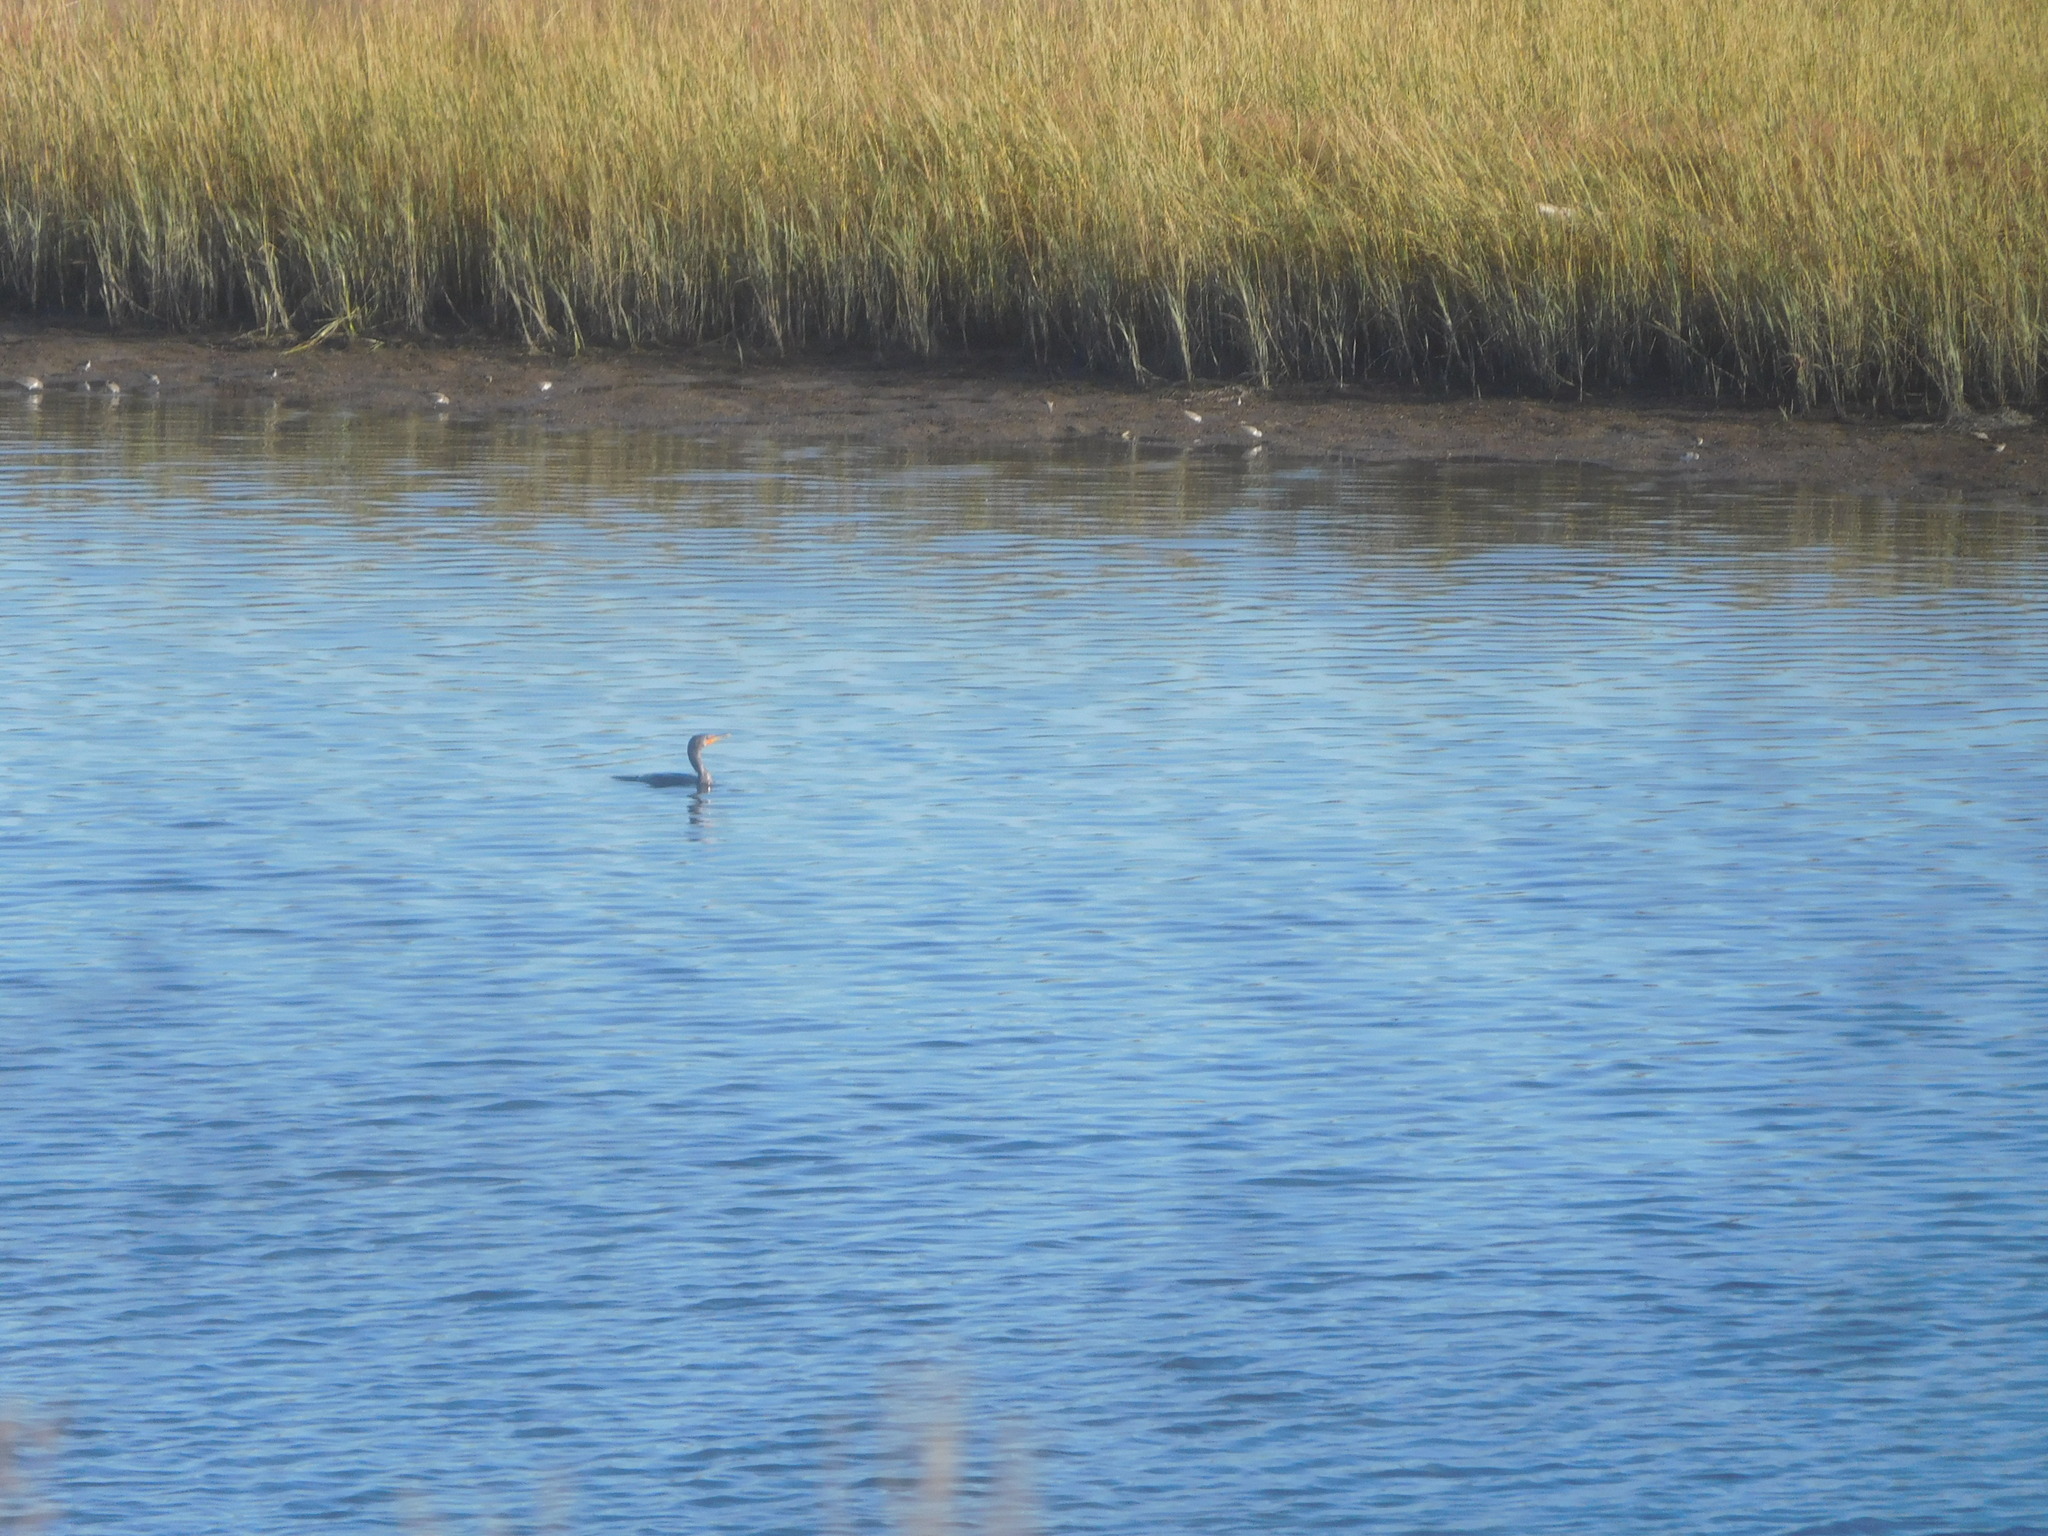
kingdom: Animalia
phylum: Chordata
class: Aves
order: Suliformes
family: Phalacrocoracidae
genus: Phalacrocorax
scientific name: Phalacrocorax auritus
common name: Double-crested cormorant
